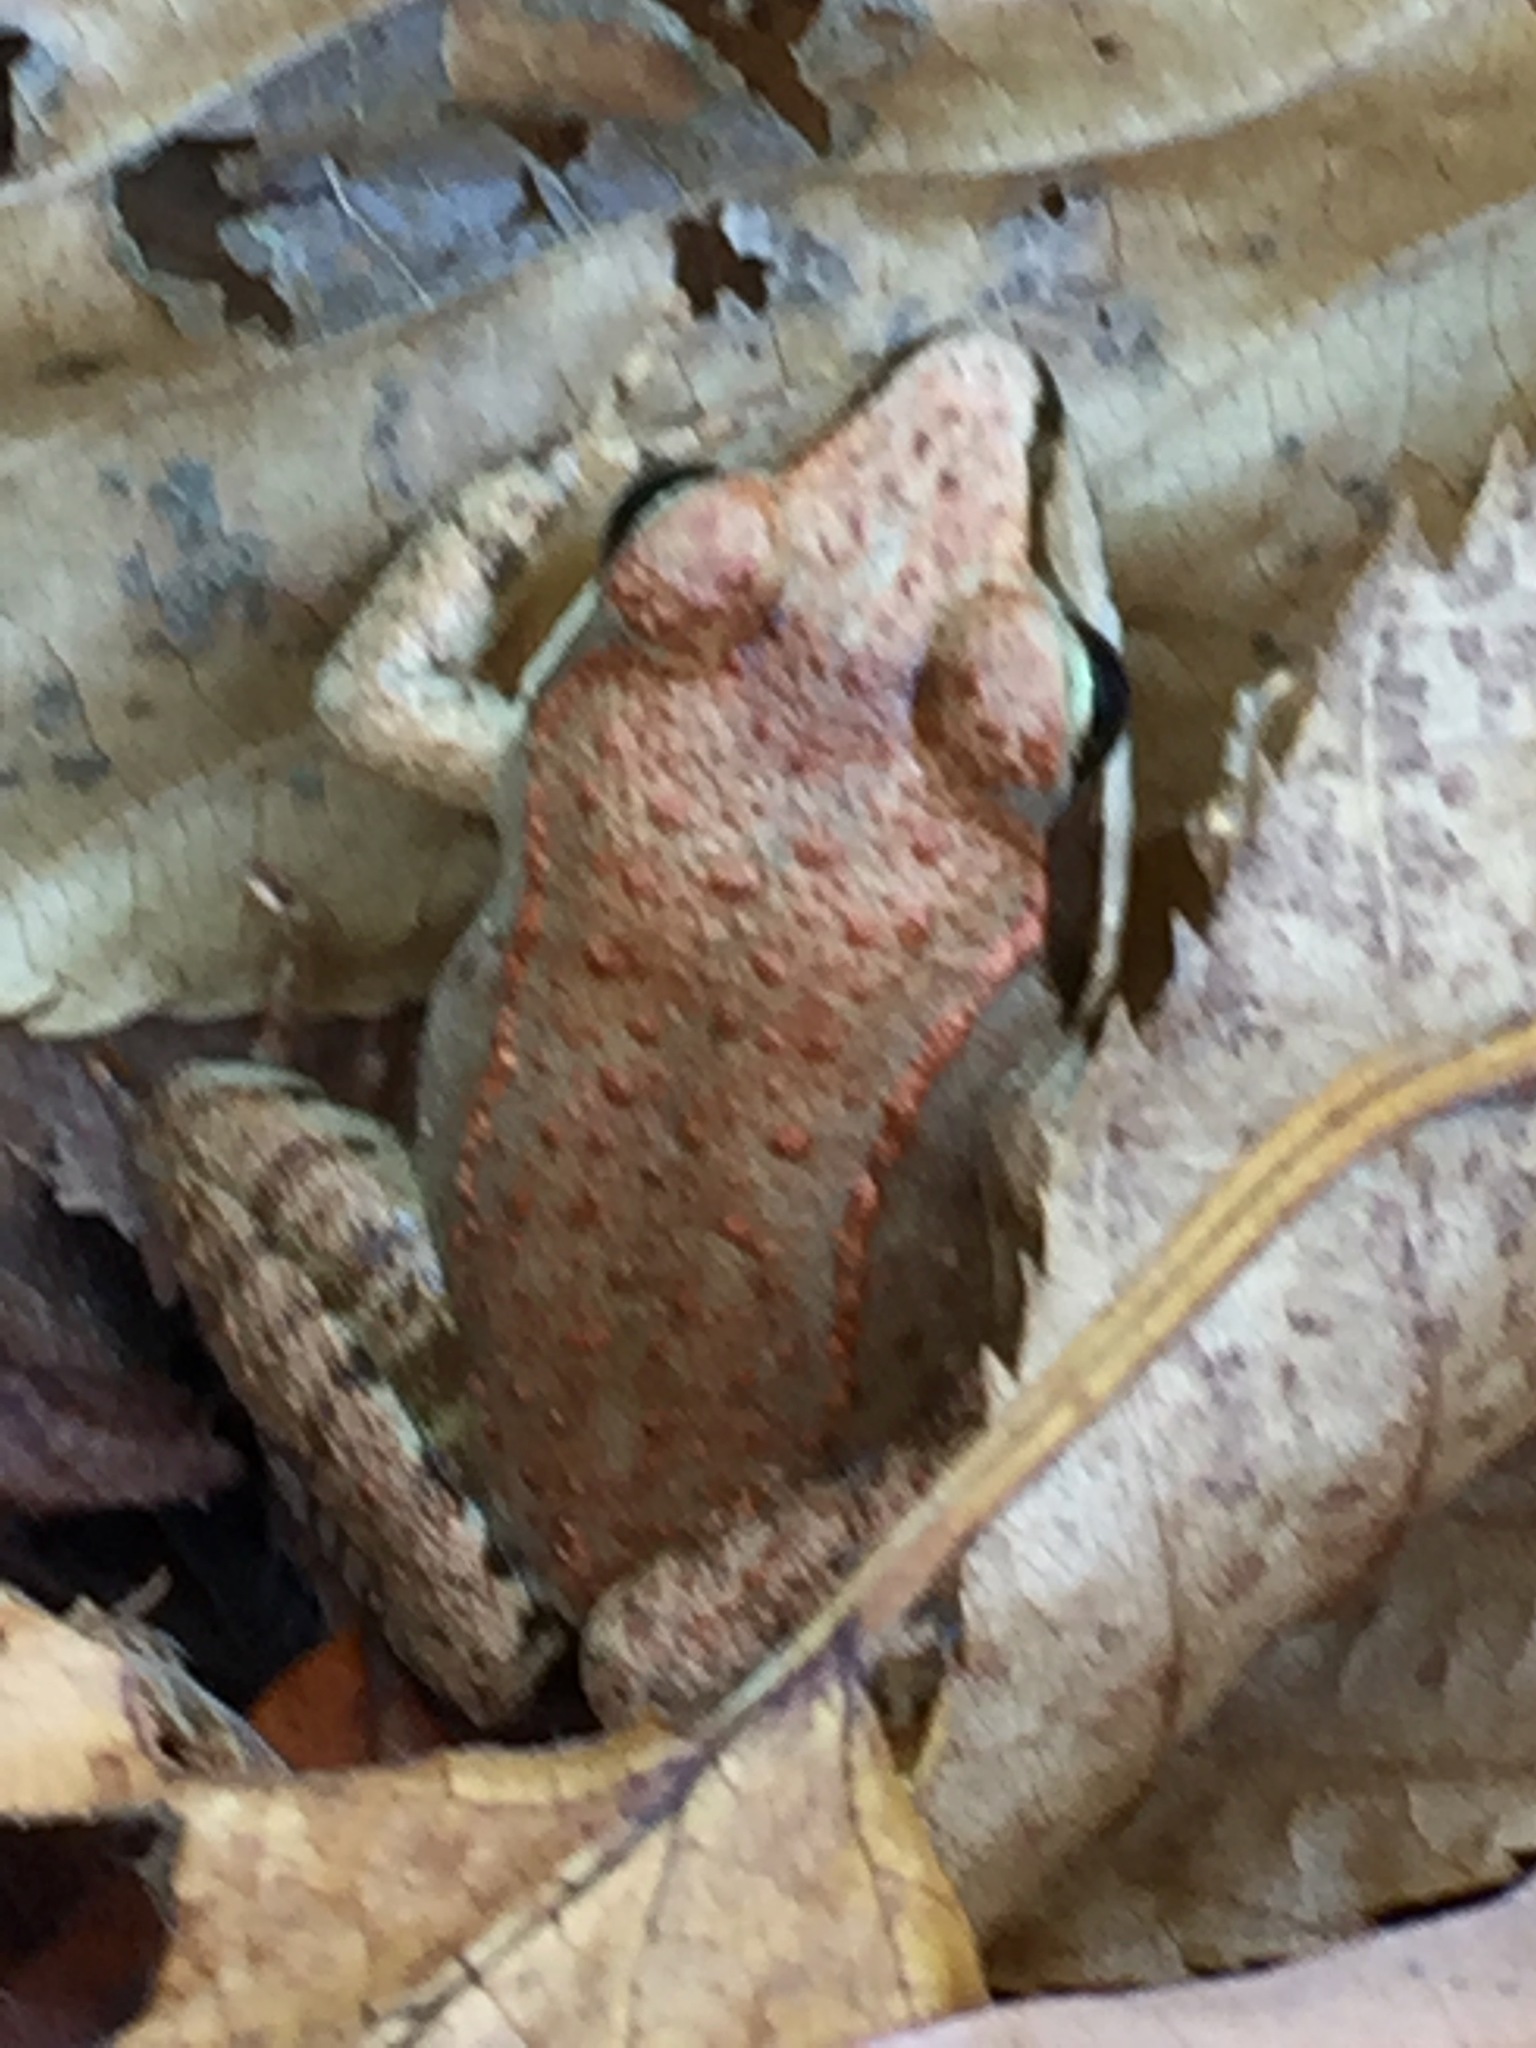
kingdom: Animalia
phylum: Chordata
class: Amphibia
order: Anura
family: Ranidae
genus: Lithobates
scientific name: Lithobates sylvaticus
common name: Wood frog
